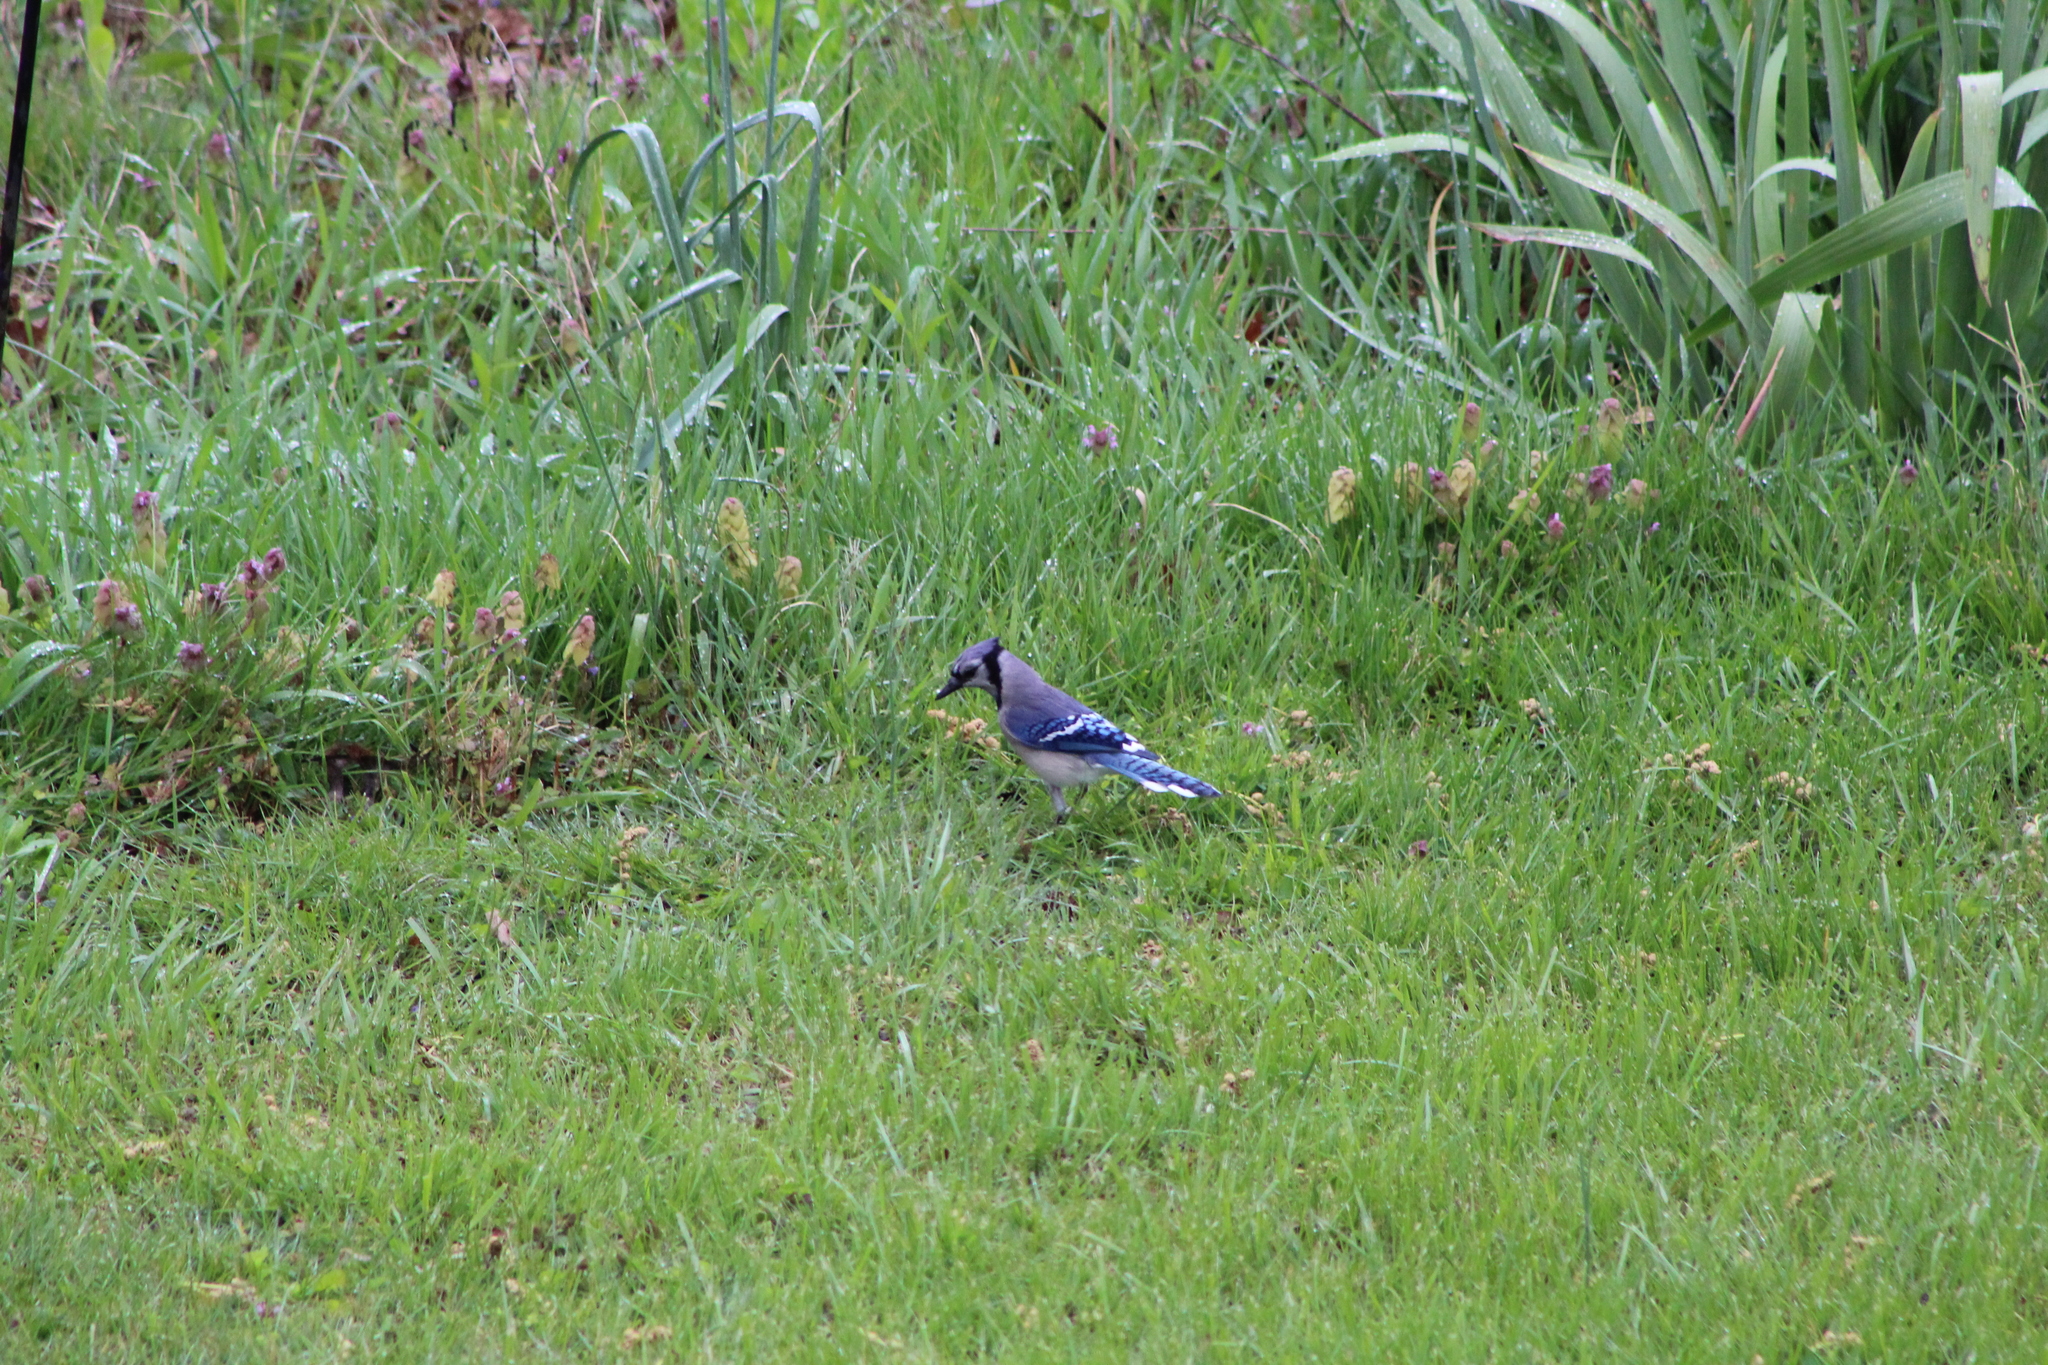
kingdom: Animalia
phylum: Chordata
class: Aves
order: Passeriformes
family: Corvidae
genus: Cyanocitta
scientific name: Cyanocitta cristata
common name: Blue jay
